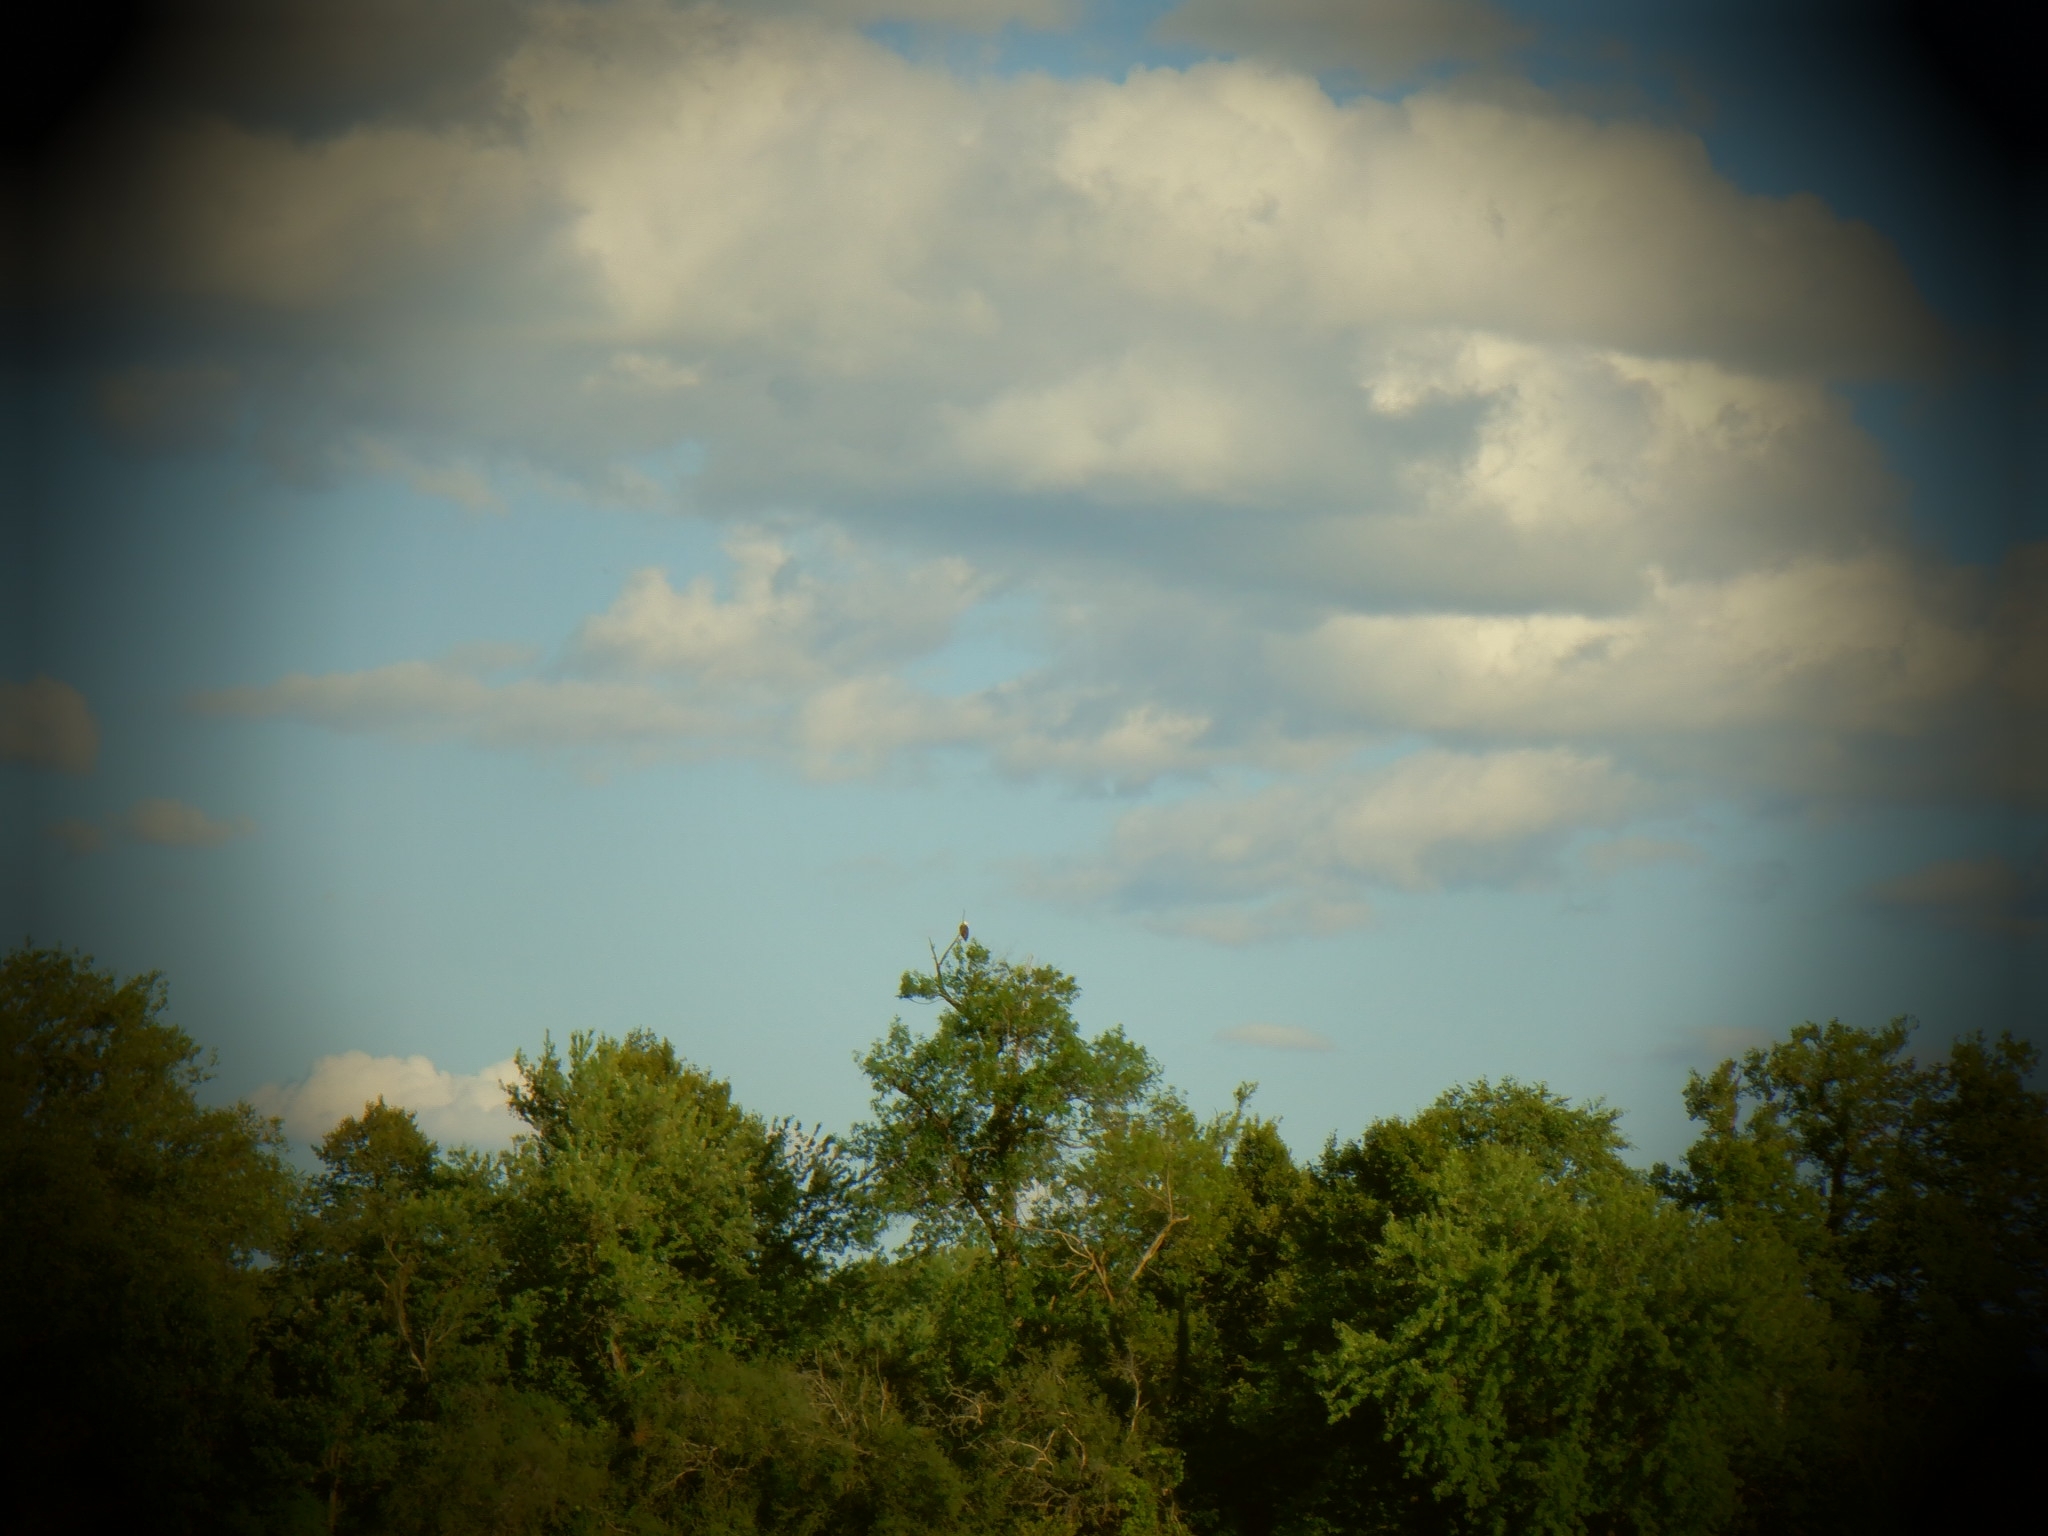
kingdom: Animalia
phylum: Chordata
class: Aves
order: Accipitriformes
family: Accipitridae
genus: Haliaeetus
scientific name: Haliaeetus leucocephalus
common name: Bald eagle
